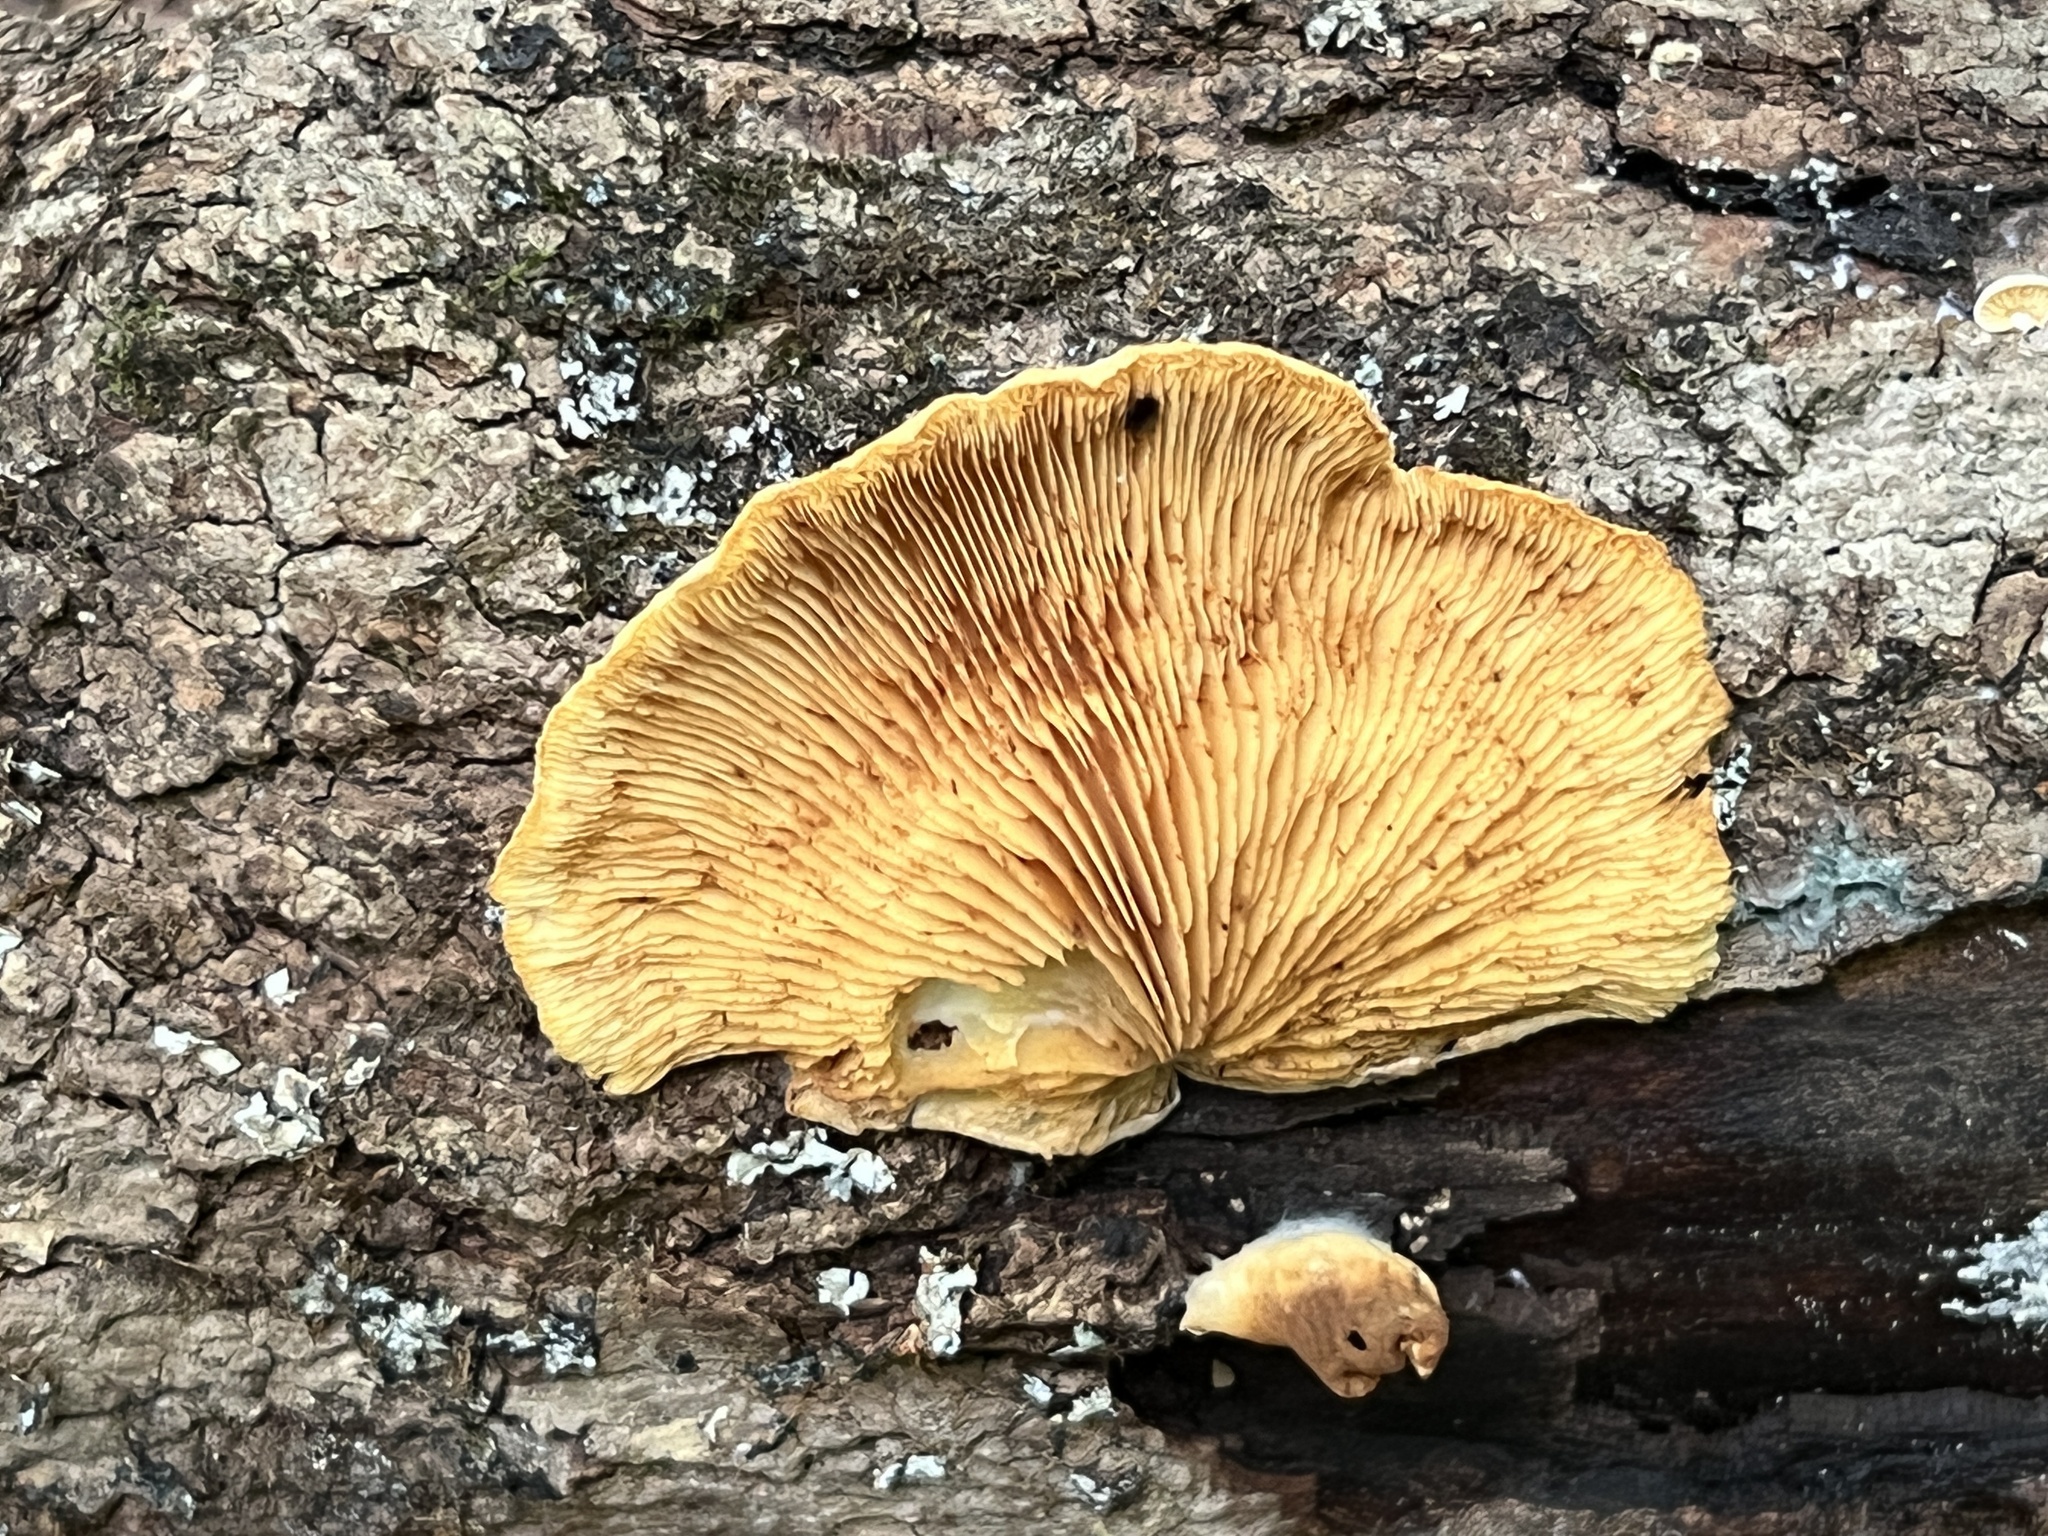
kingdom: Fungi
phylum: Basidiomycota
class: Agaricomycetes
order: Agaricales
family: Crepidotaceae
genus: Crepidotus
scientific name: Crepidotus croceotinctus
